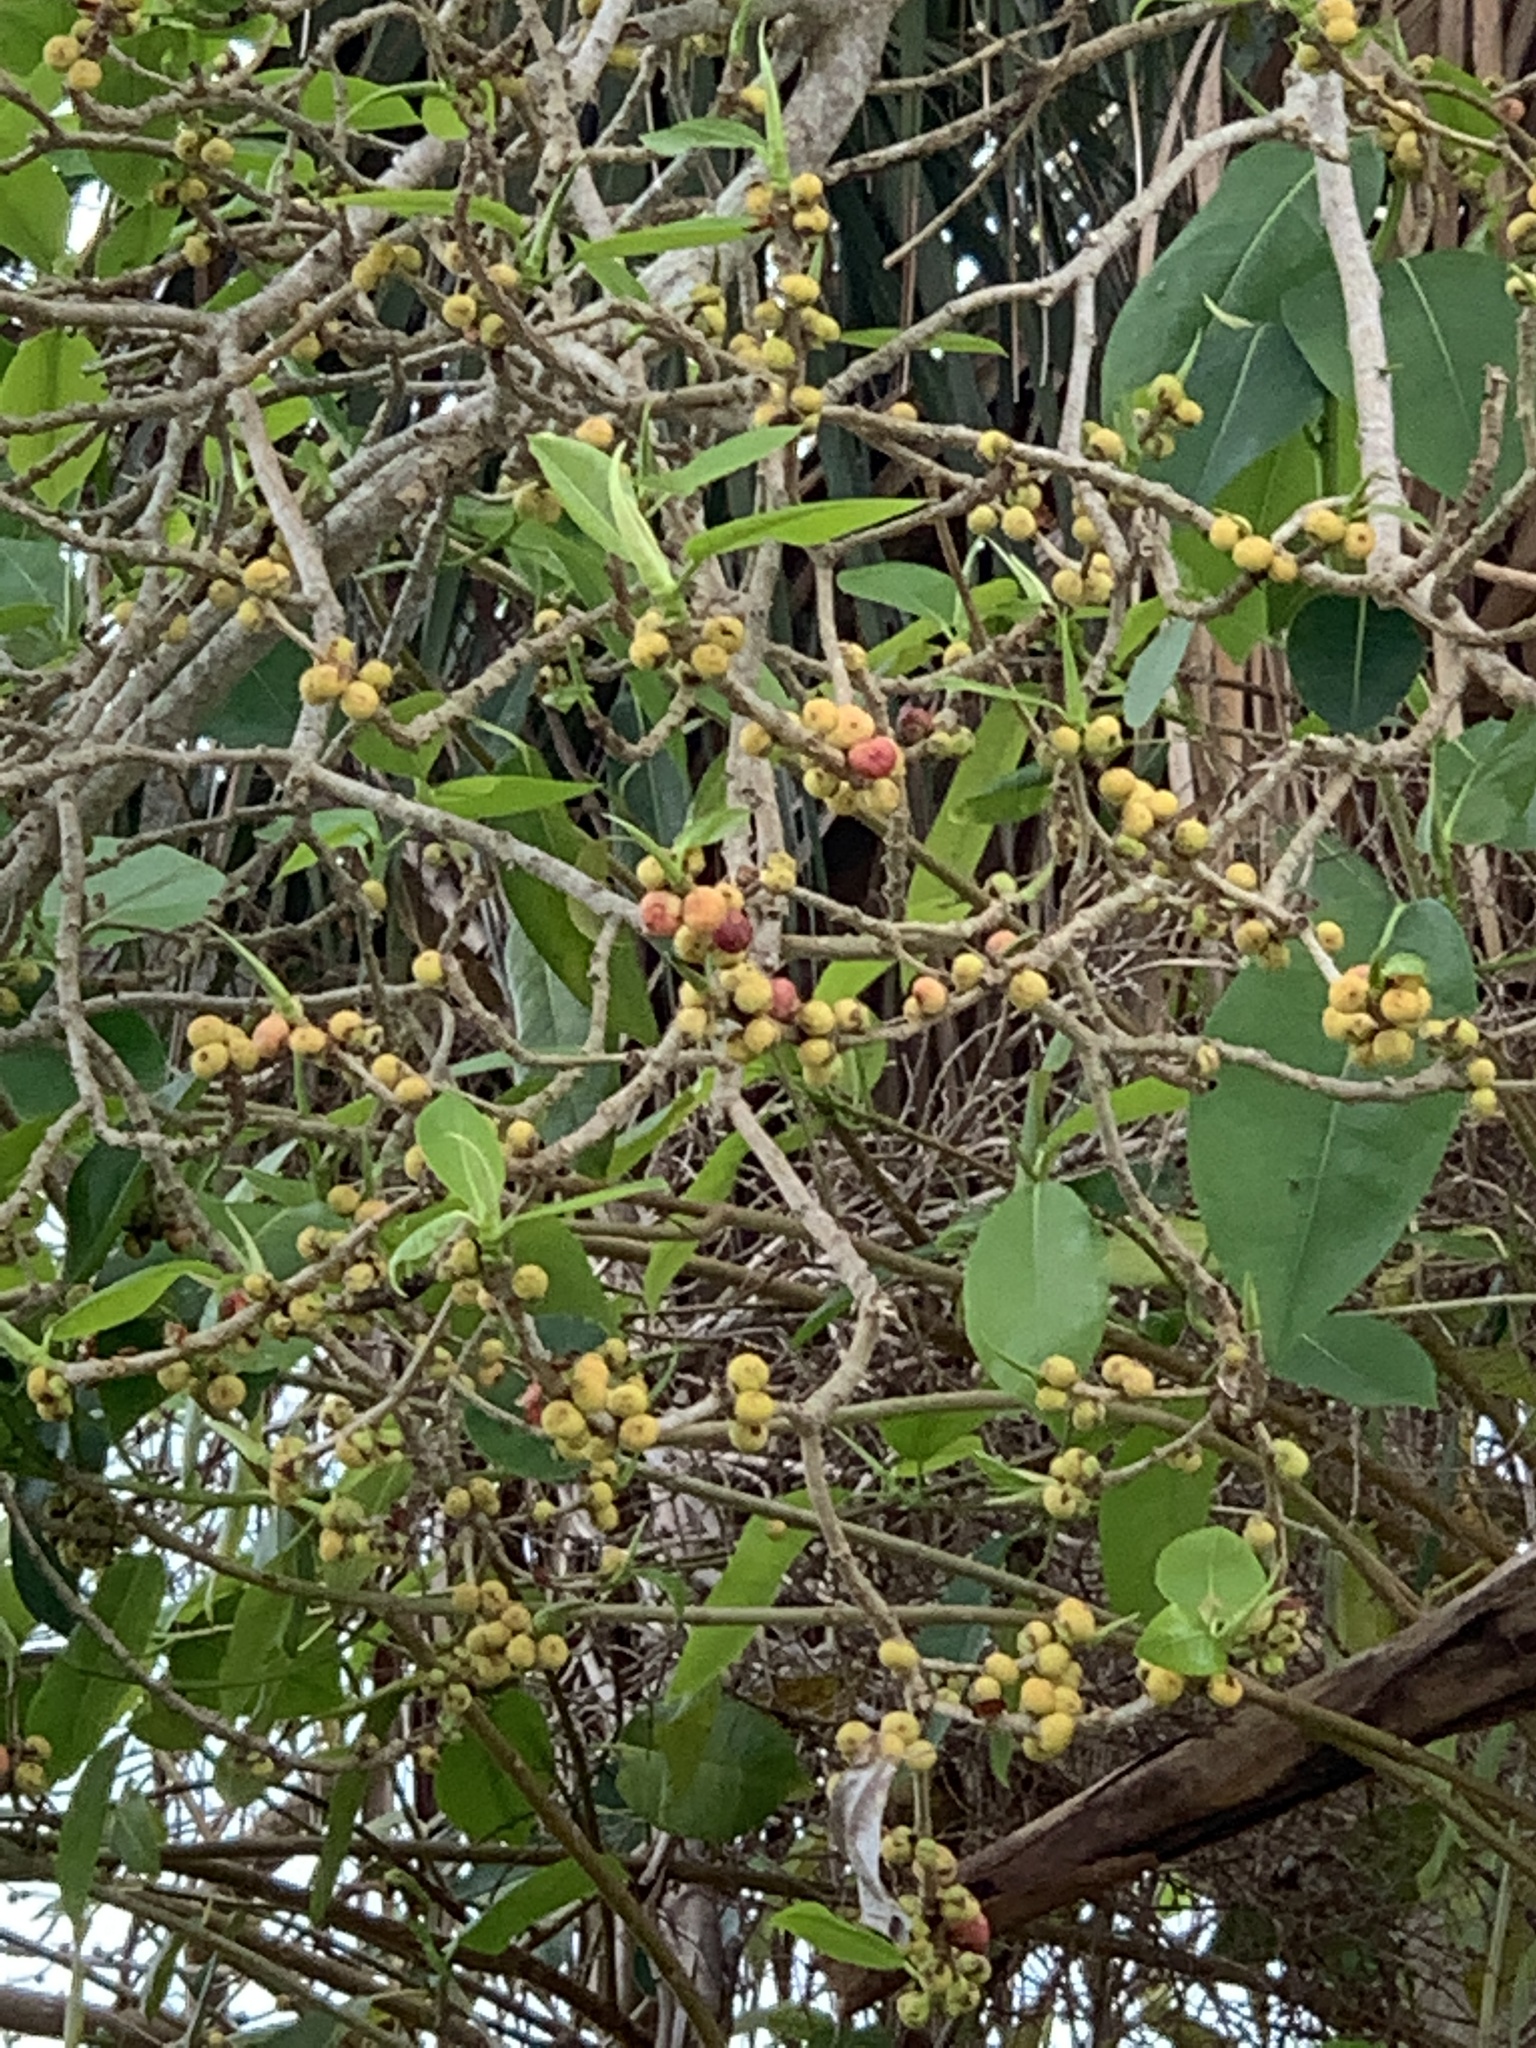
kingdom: Plantae
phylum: Tracheophyta
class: Magnoliopsida
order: Rosales
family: Moraceae
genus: Ficus
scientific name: Ficus aurea
